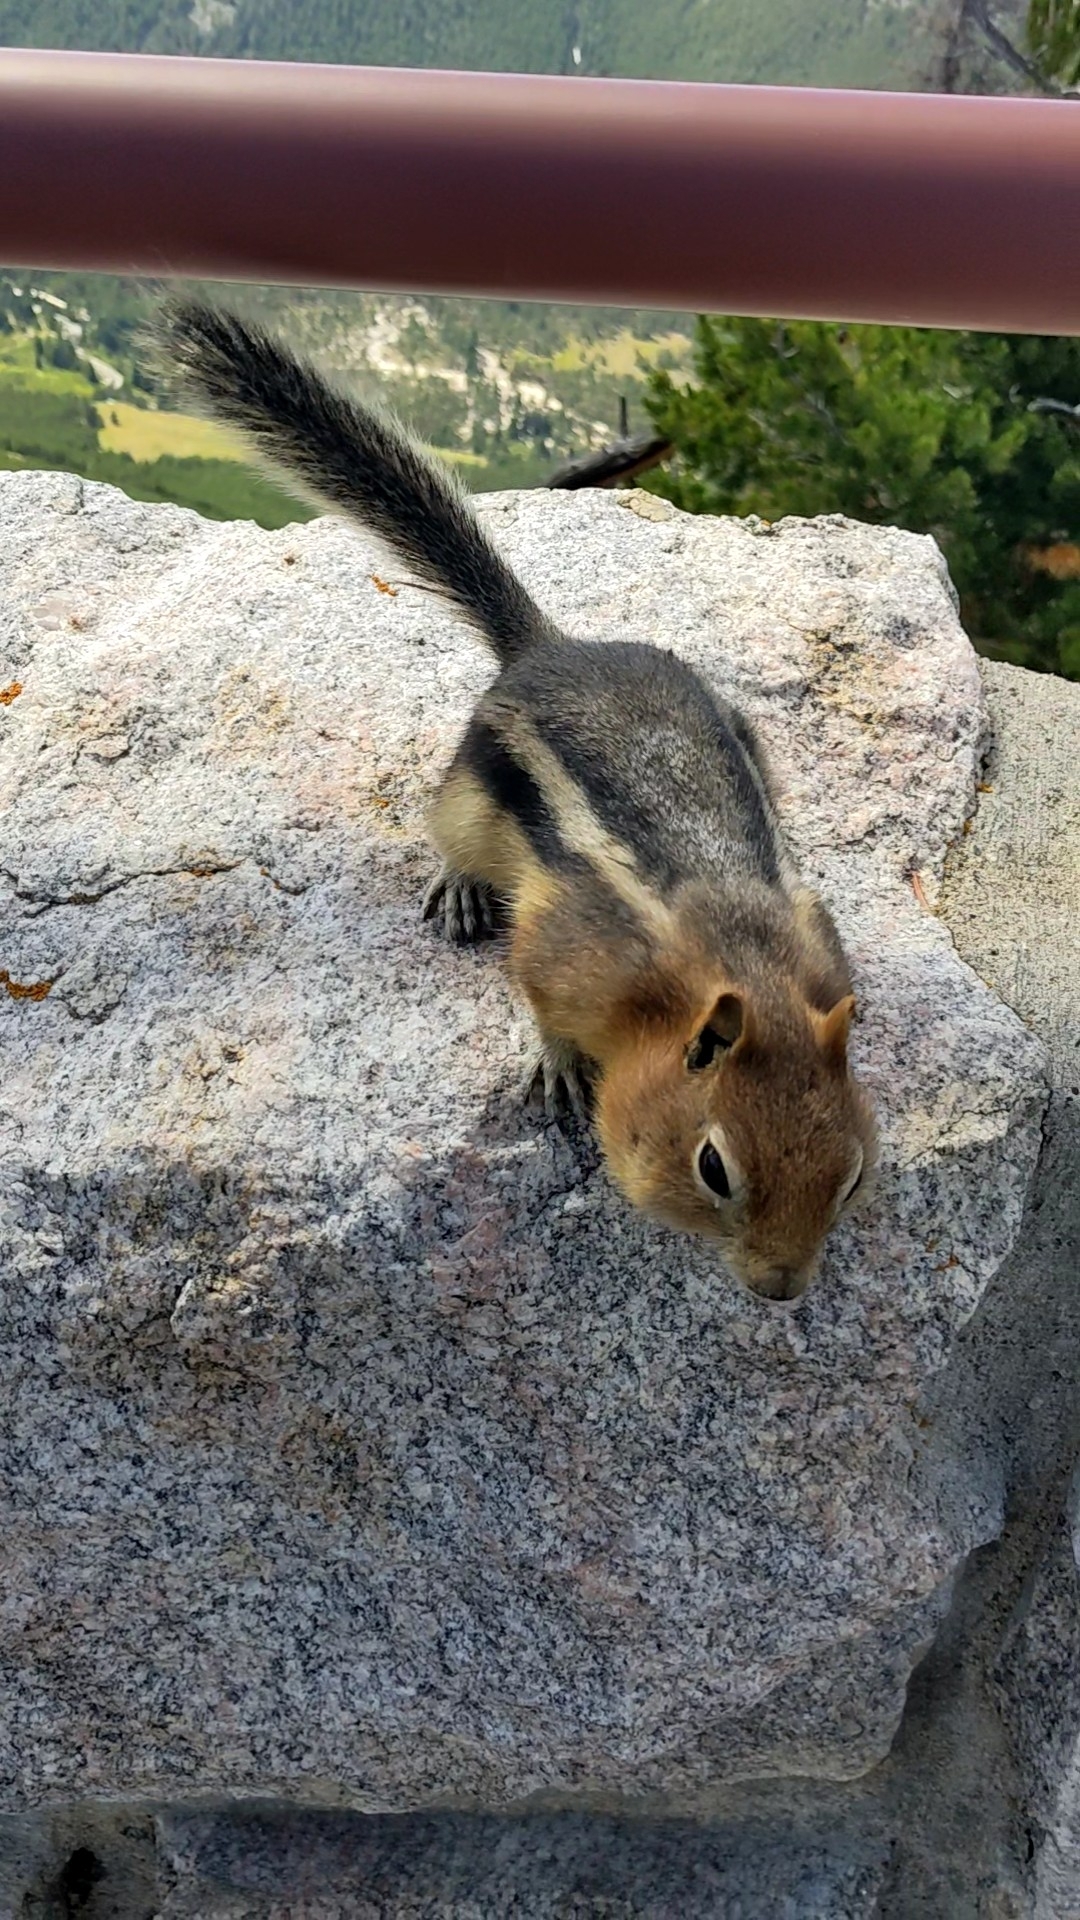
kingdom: Animalia
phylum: Chordata
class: Mammalia
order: Rodentia
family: Sciuridae
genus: Callospermophilus
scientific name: Callospermophilus lateralis
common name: Golden-mantled ground squirrel
